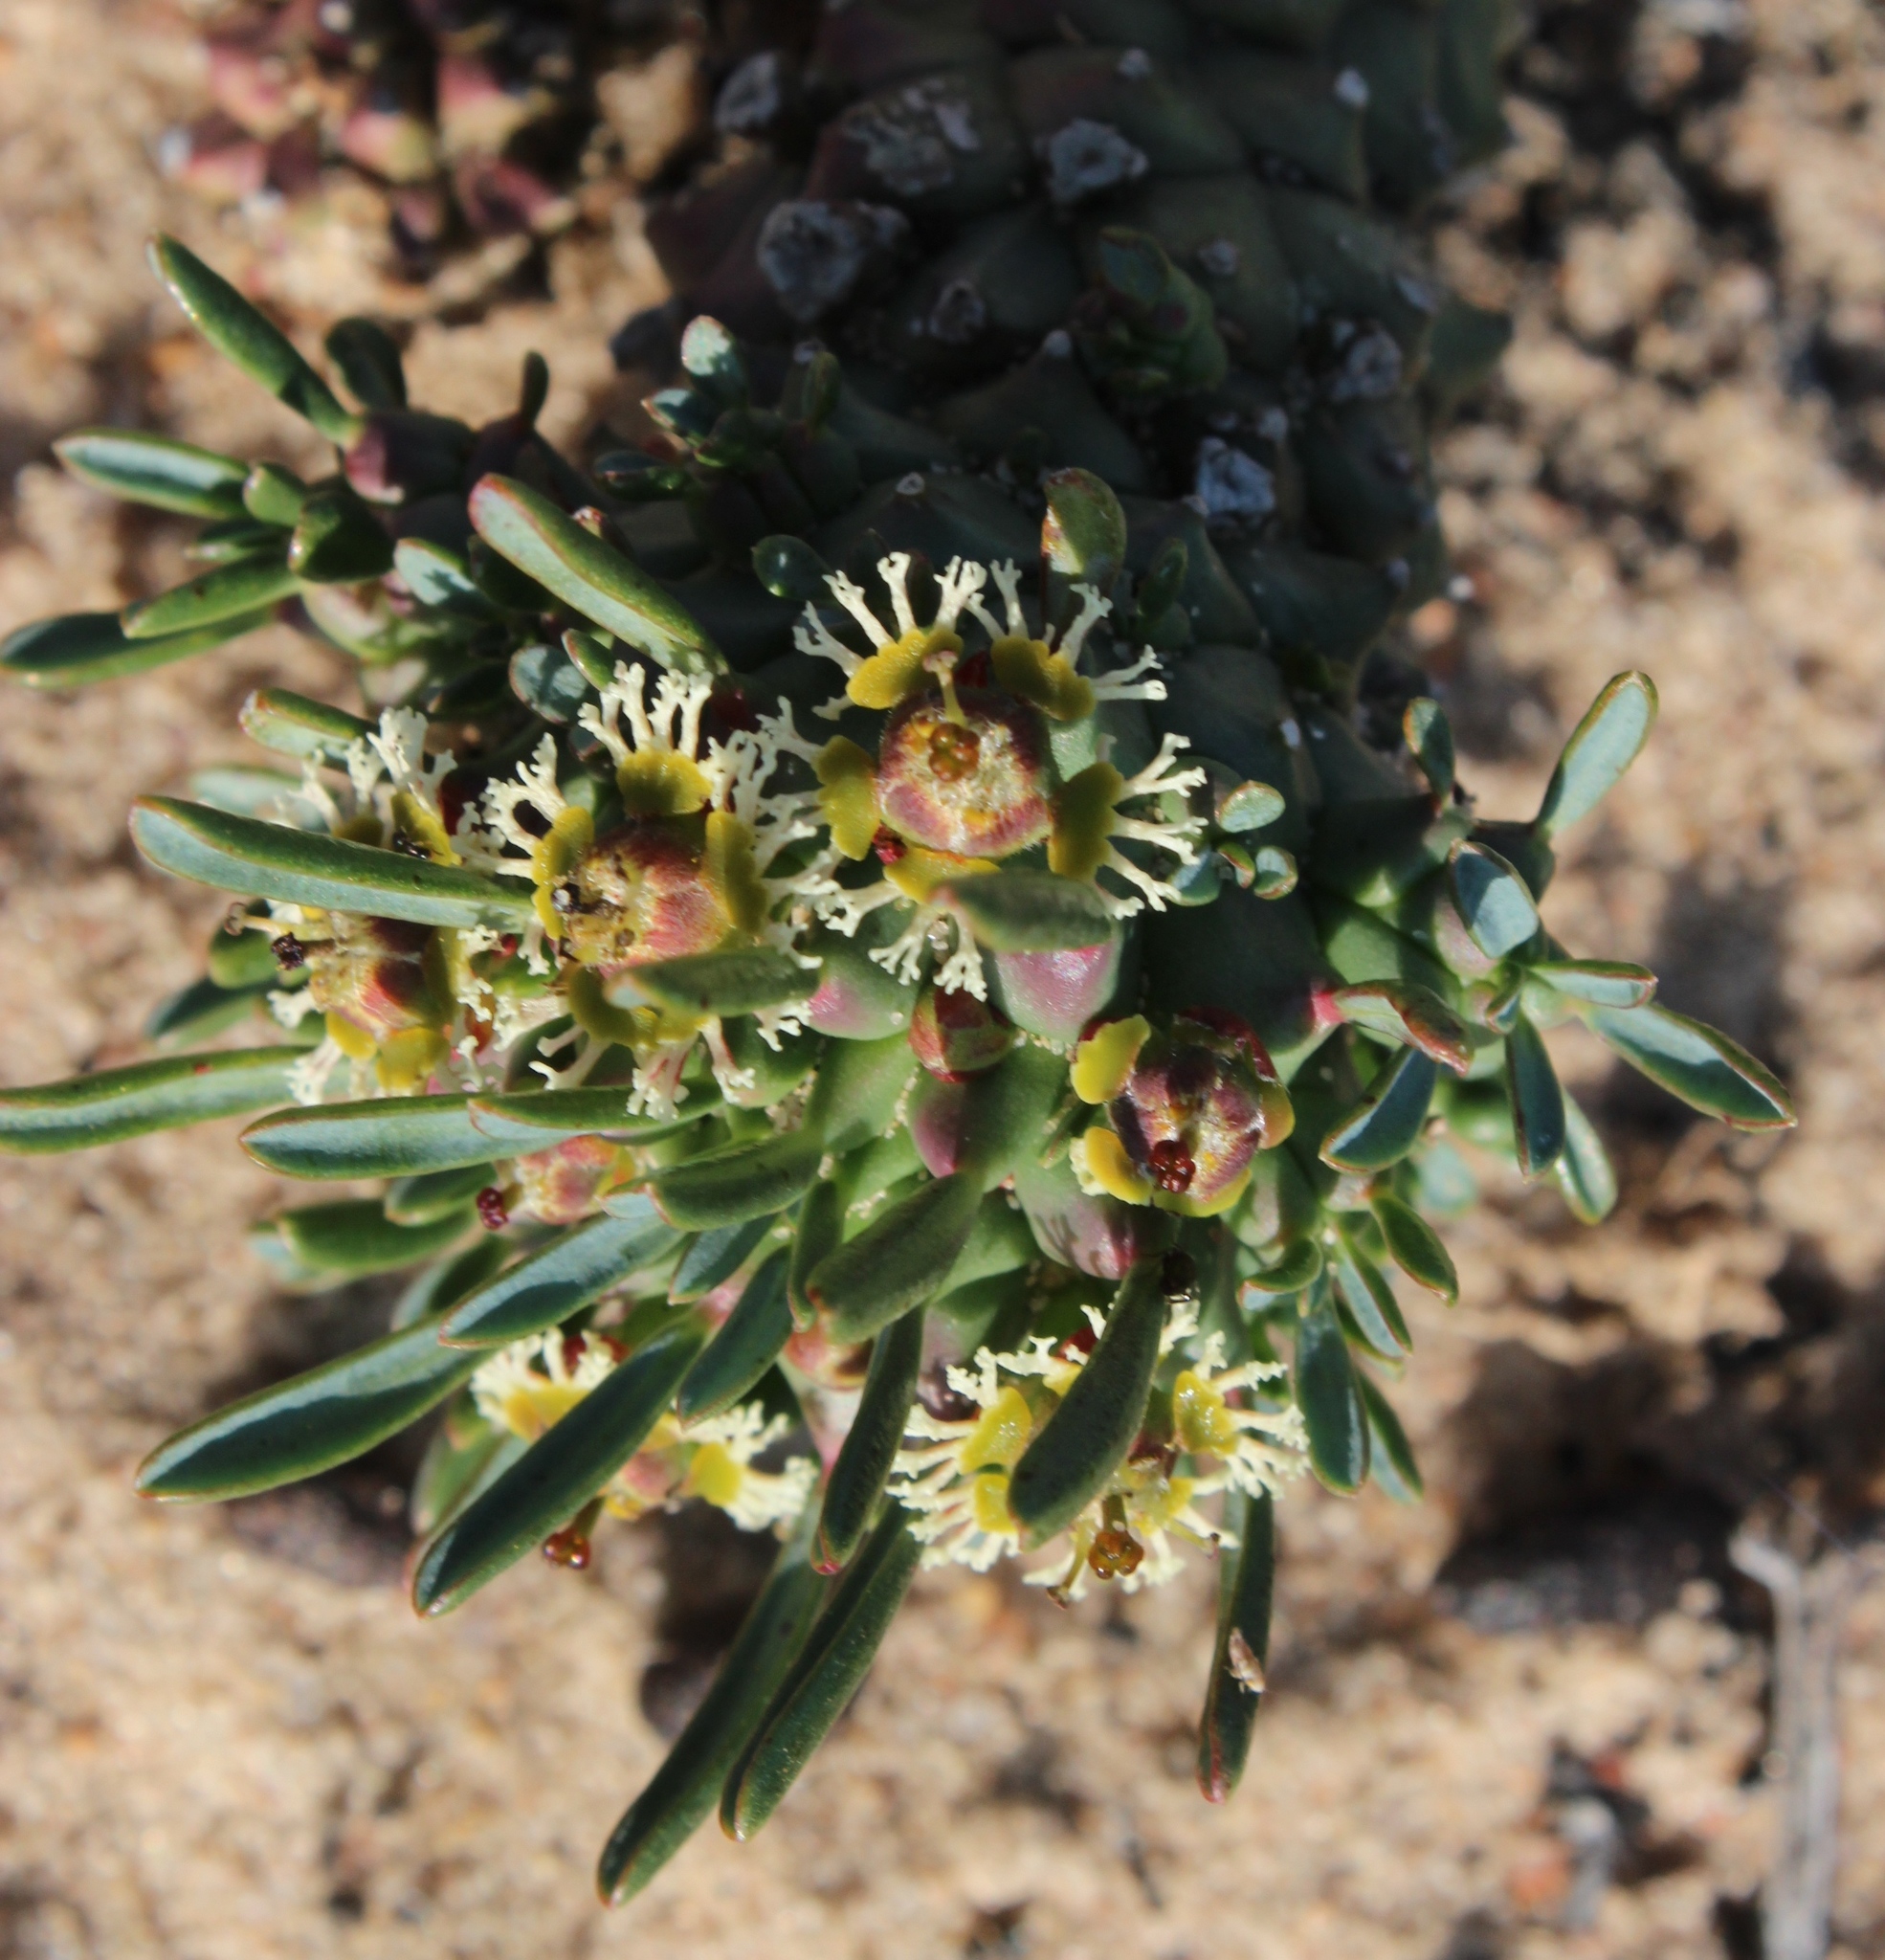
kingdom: Plantae
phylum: Tracheophyta
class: Magnoliopsida
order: Malpighiales
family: Euphorbiaceae
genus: Euphorbia
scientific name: Euphorbia caput-medusae
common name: Medusa's-head
